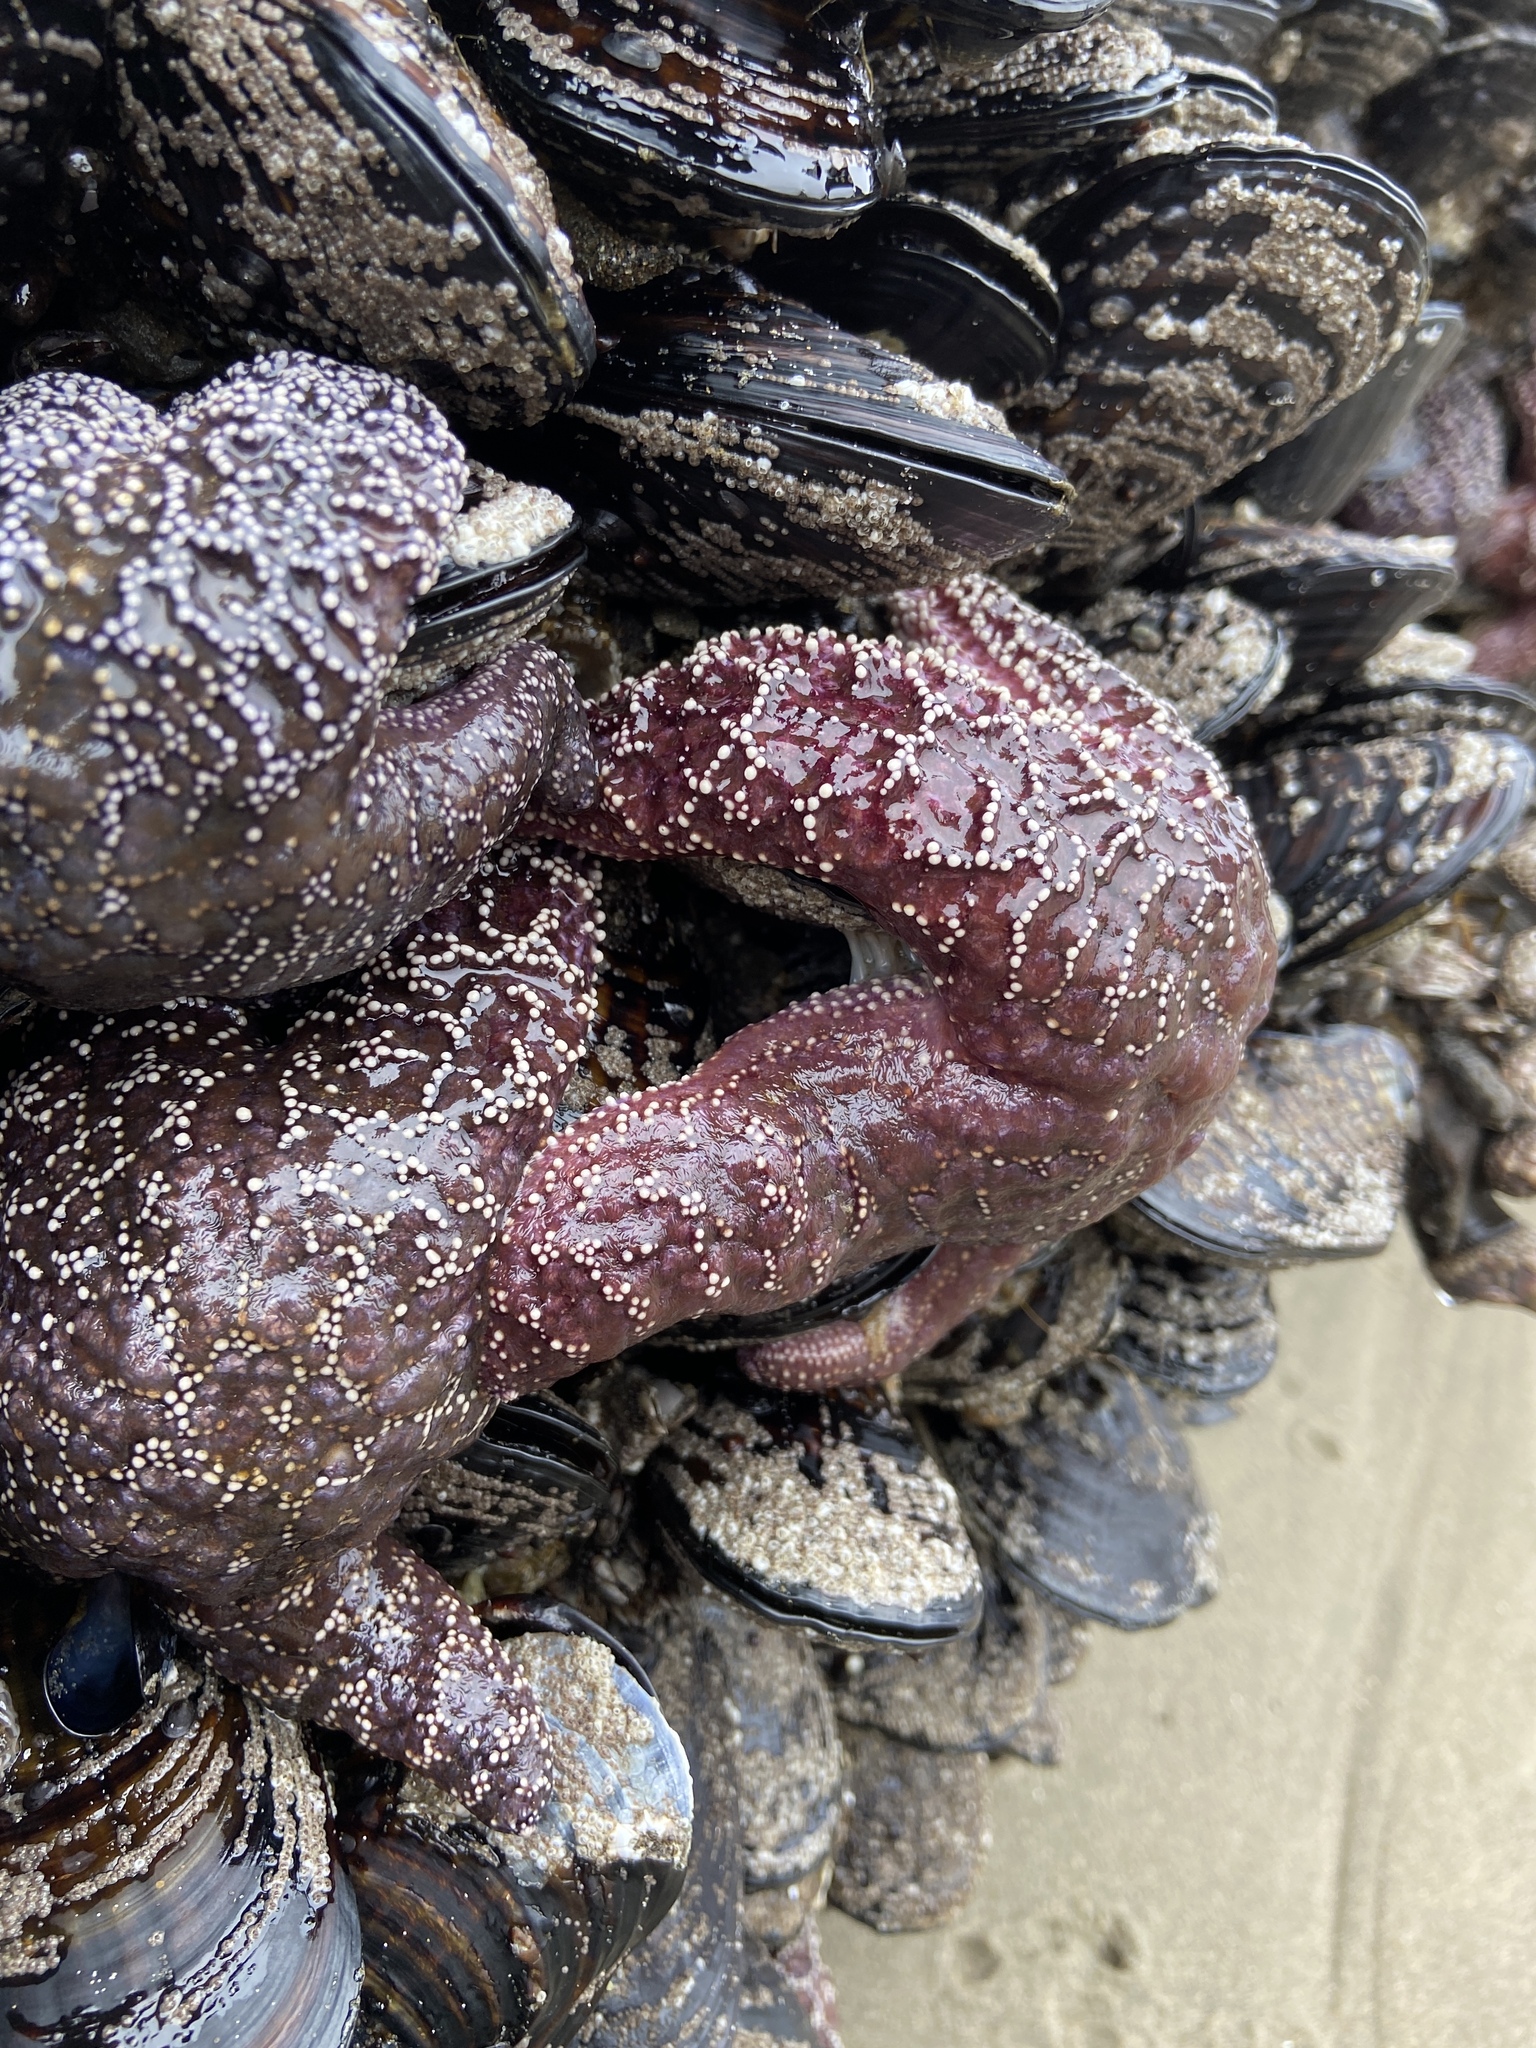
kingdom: Animalia
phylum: Echinodermata
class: Asteroidea
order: Forcipulatida
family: Asteriidae
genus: Pisaster
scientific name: Pisaster ochraceus
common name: Ochre stars
